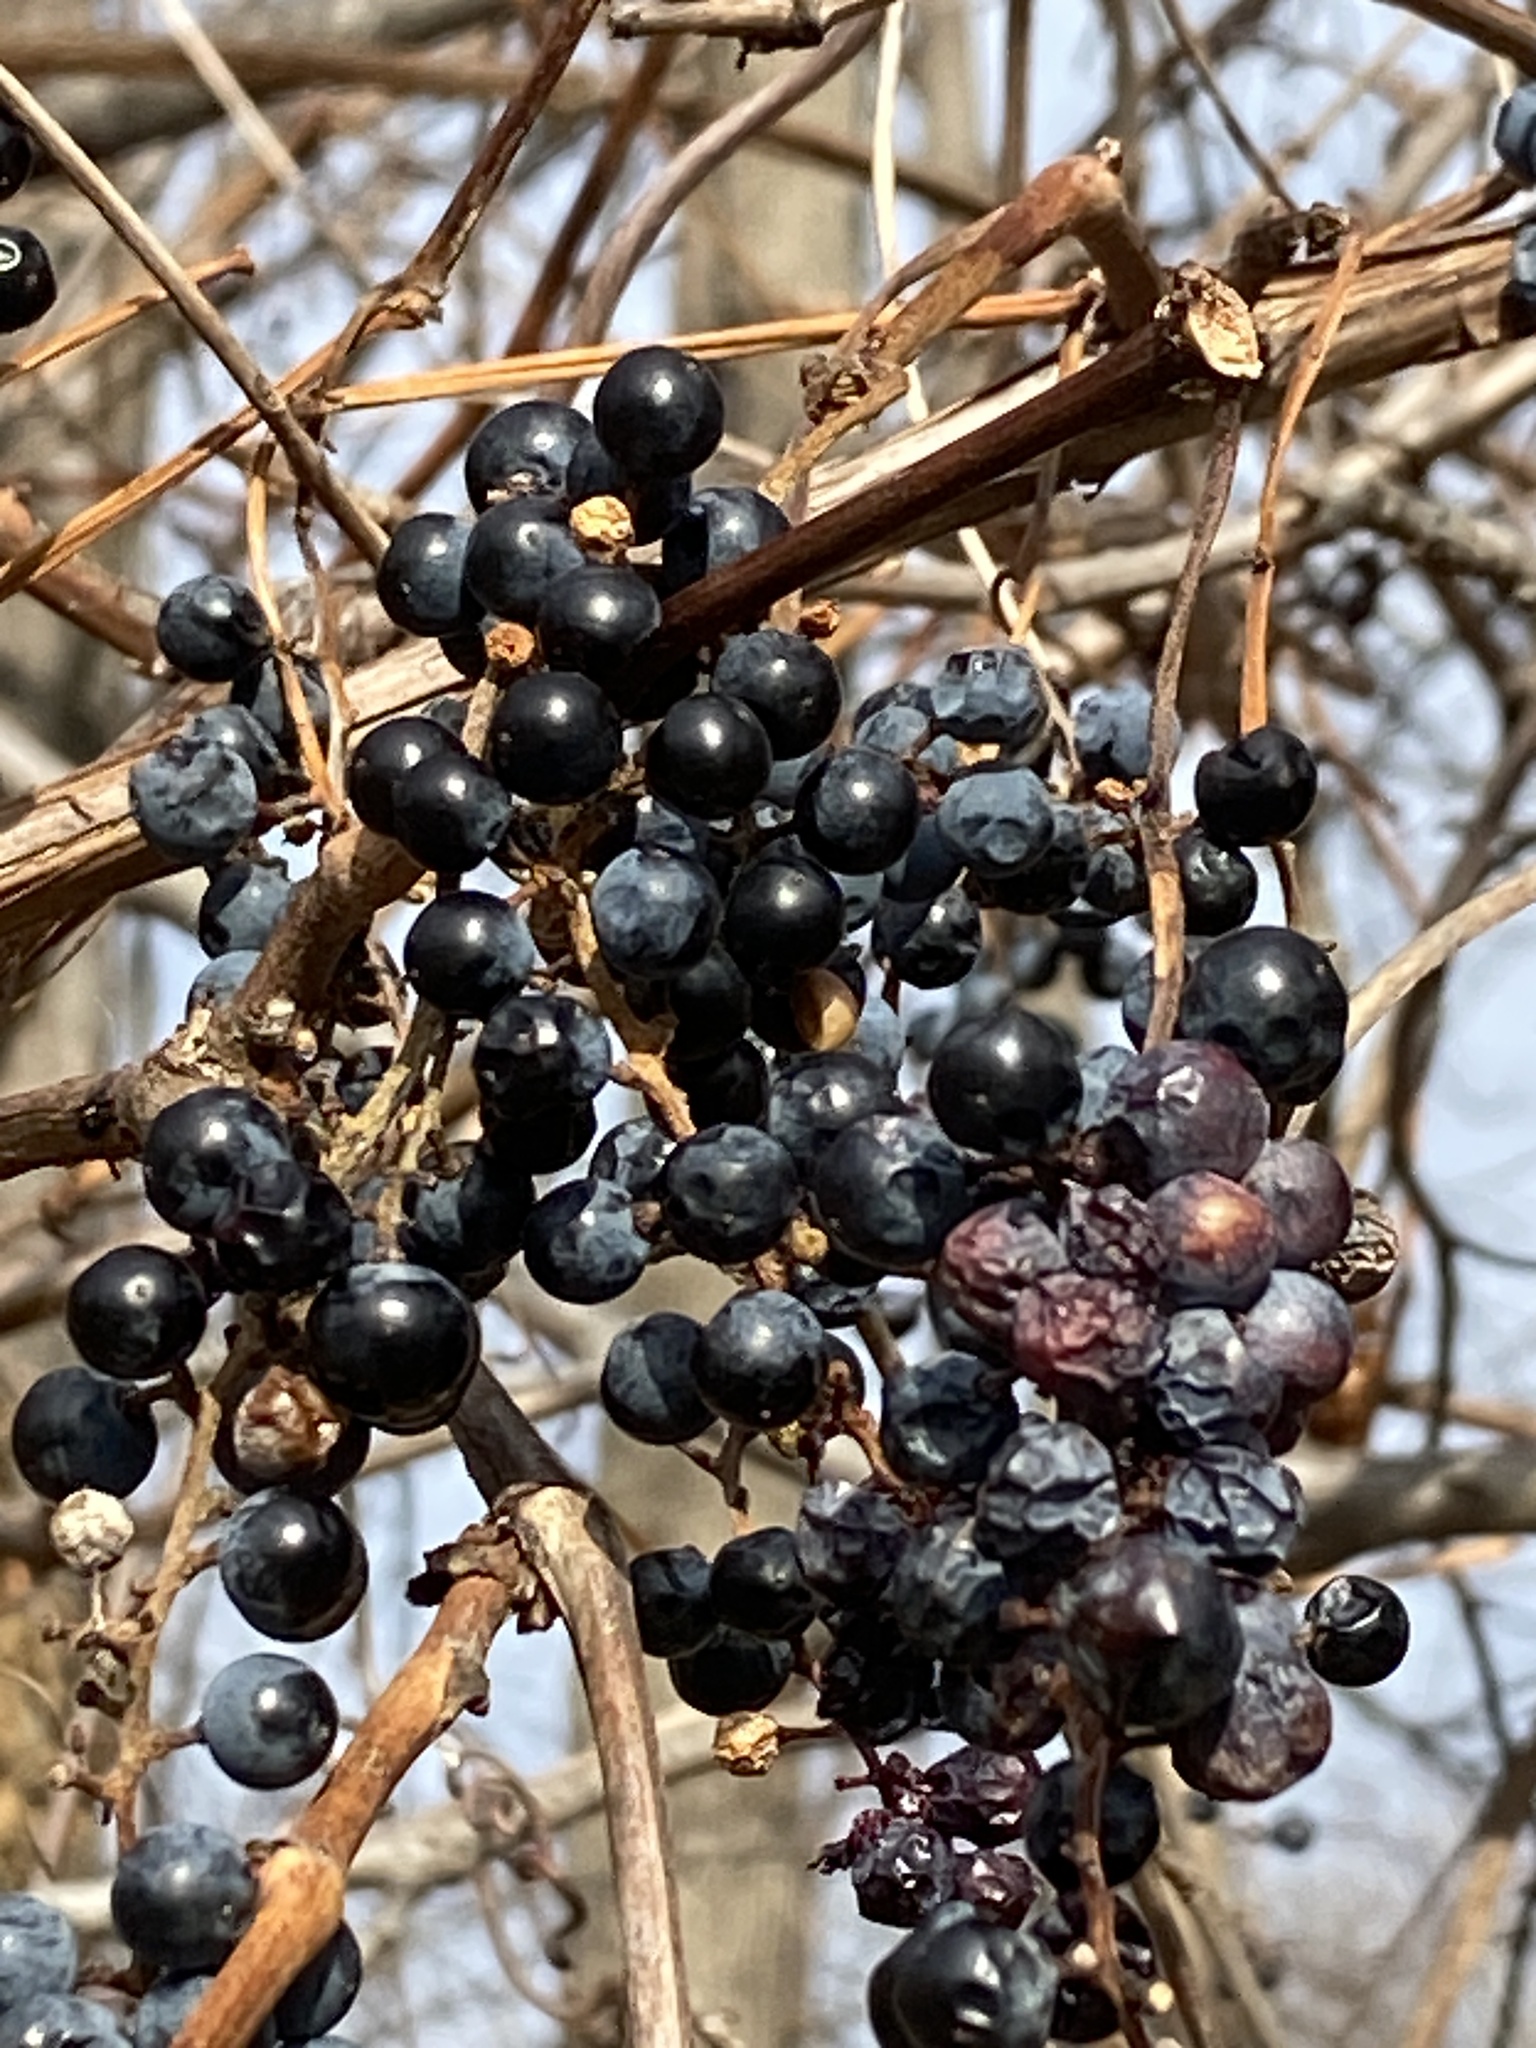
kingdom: Plantae
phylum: Tracheophyta
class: Magnoliopsida
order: Vitales
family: Vitaceae
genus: Vitis
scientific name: Vitis riparia
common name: Frost grape
